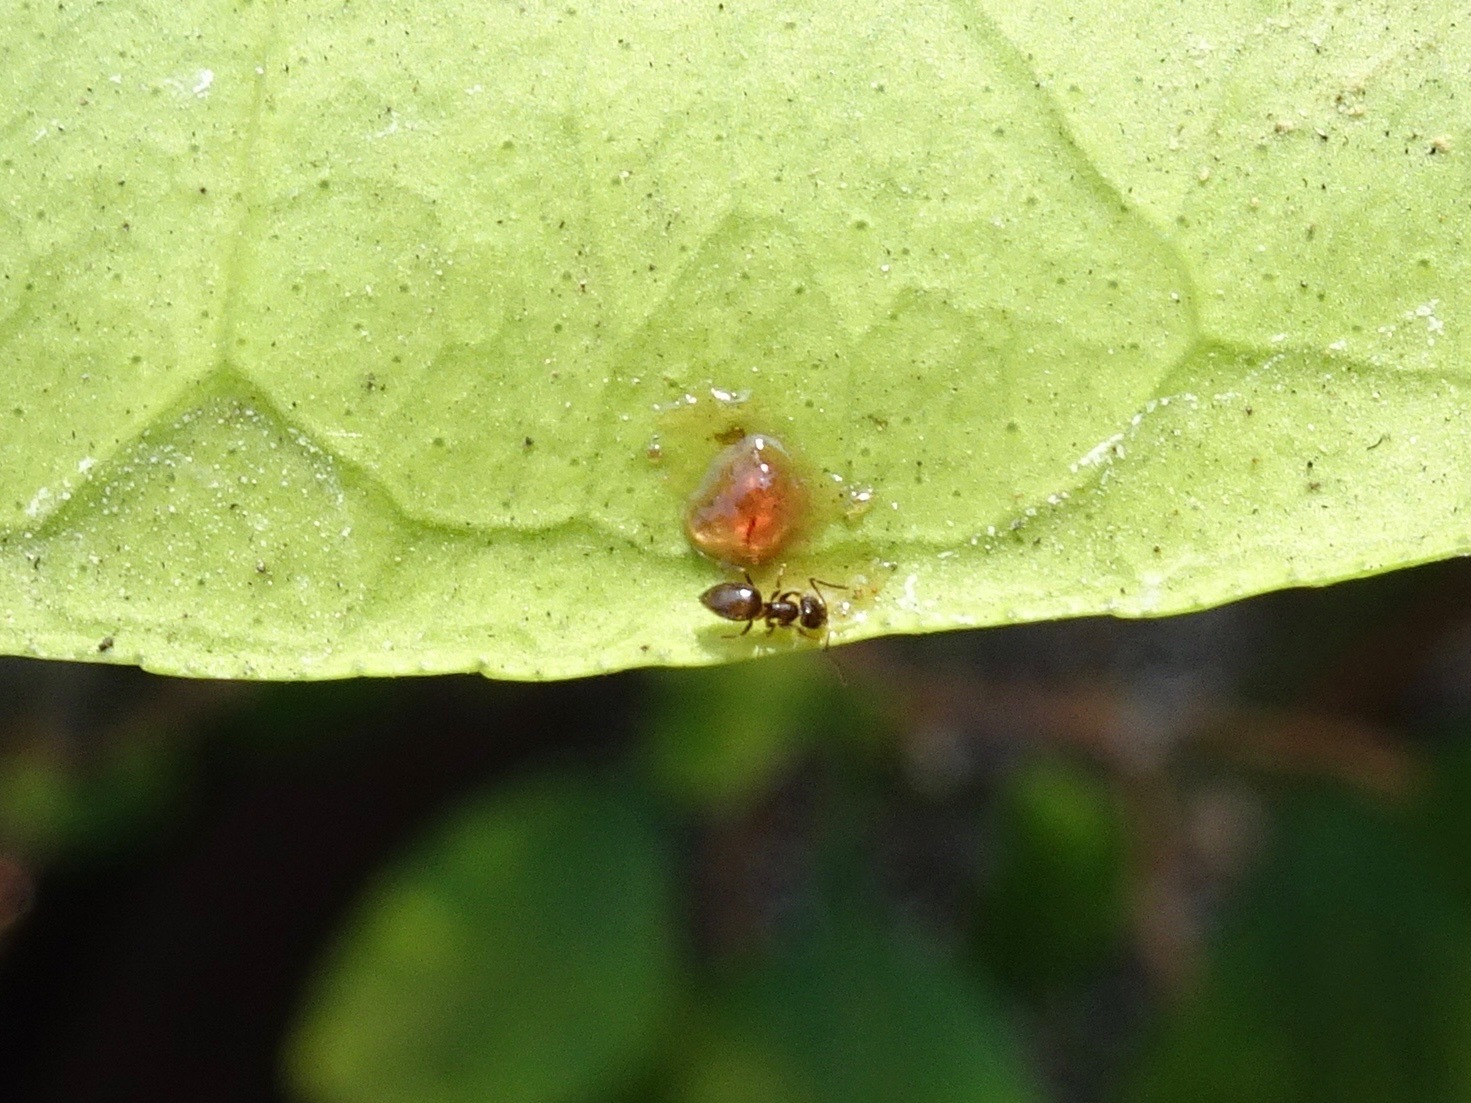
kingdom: Animalia
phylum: Arthropoda
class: Insecta
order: Hymenoptera
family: Formicidae
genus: Brachymyrmex
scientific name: Brachymyrmex patagonicus
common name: Dark rover ant
